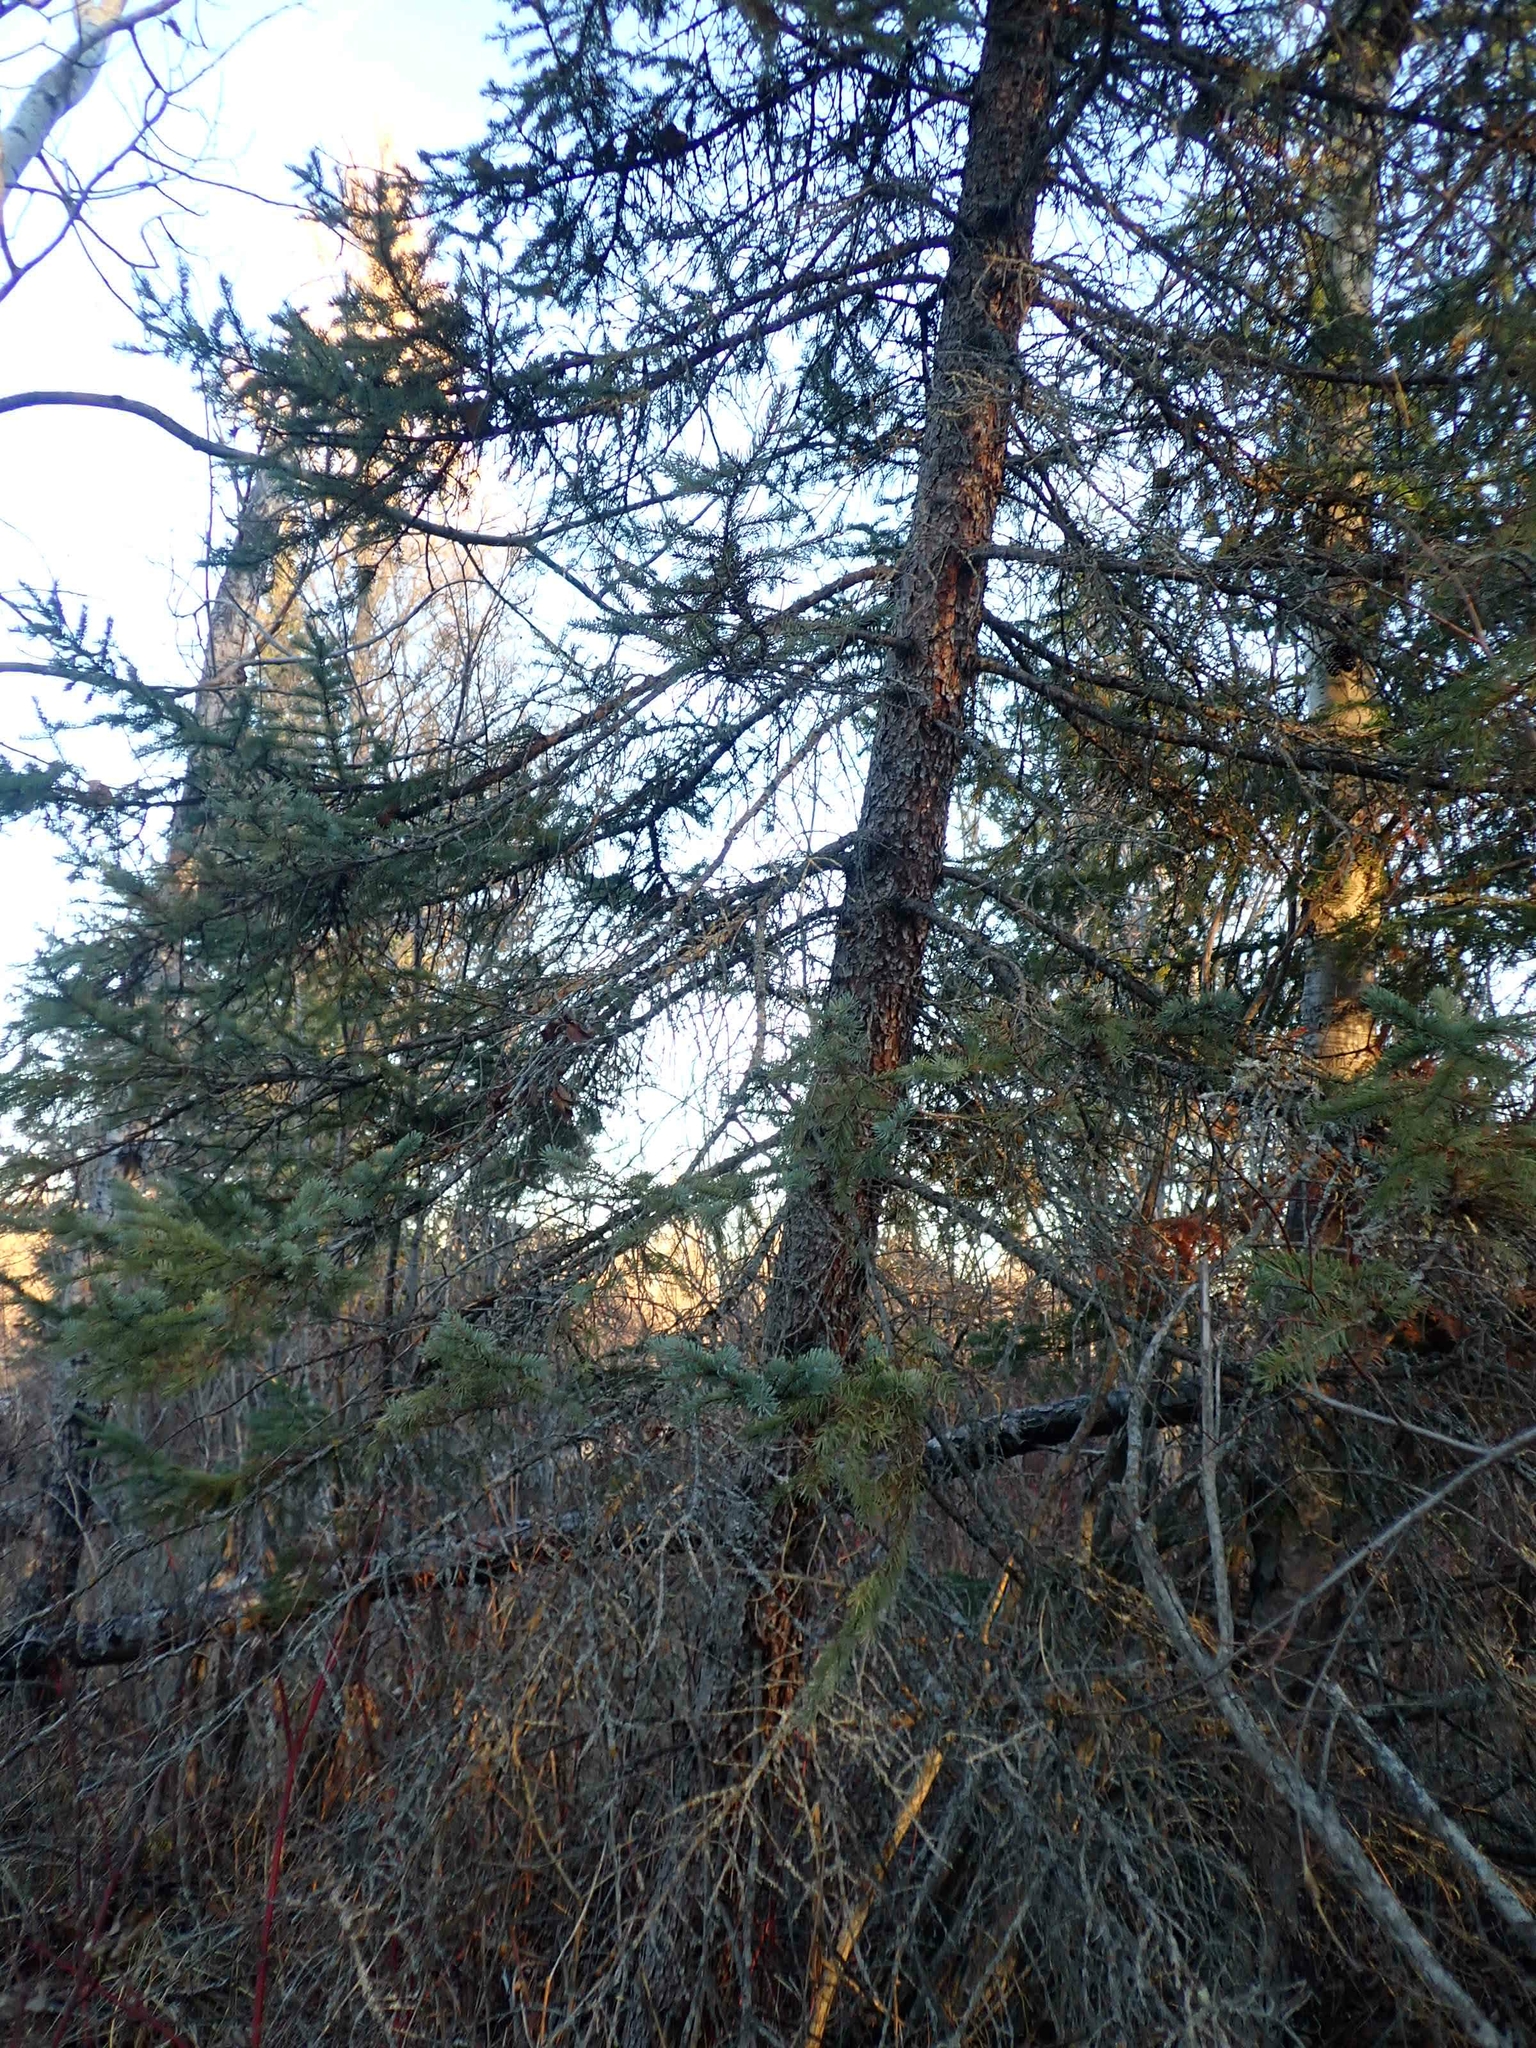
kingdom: Plantae
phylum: Tracheophyta
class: Pinopsida
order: Pinales
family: Pinaceae
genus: Picea
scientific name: Picea mariana
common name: Black spruce
